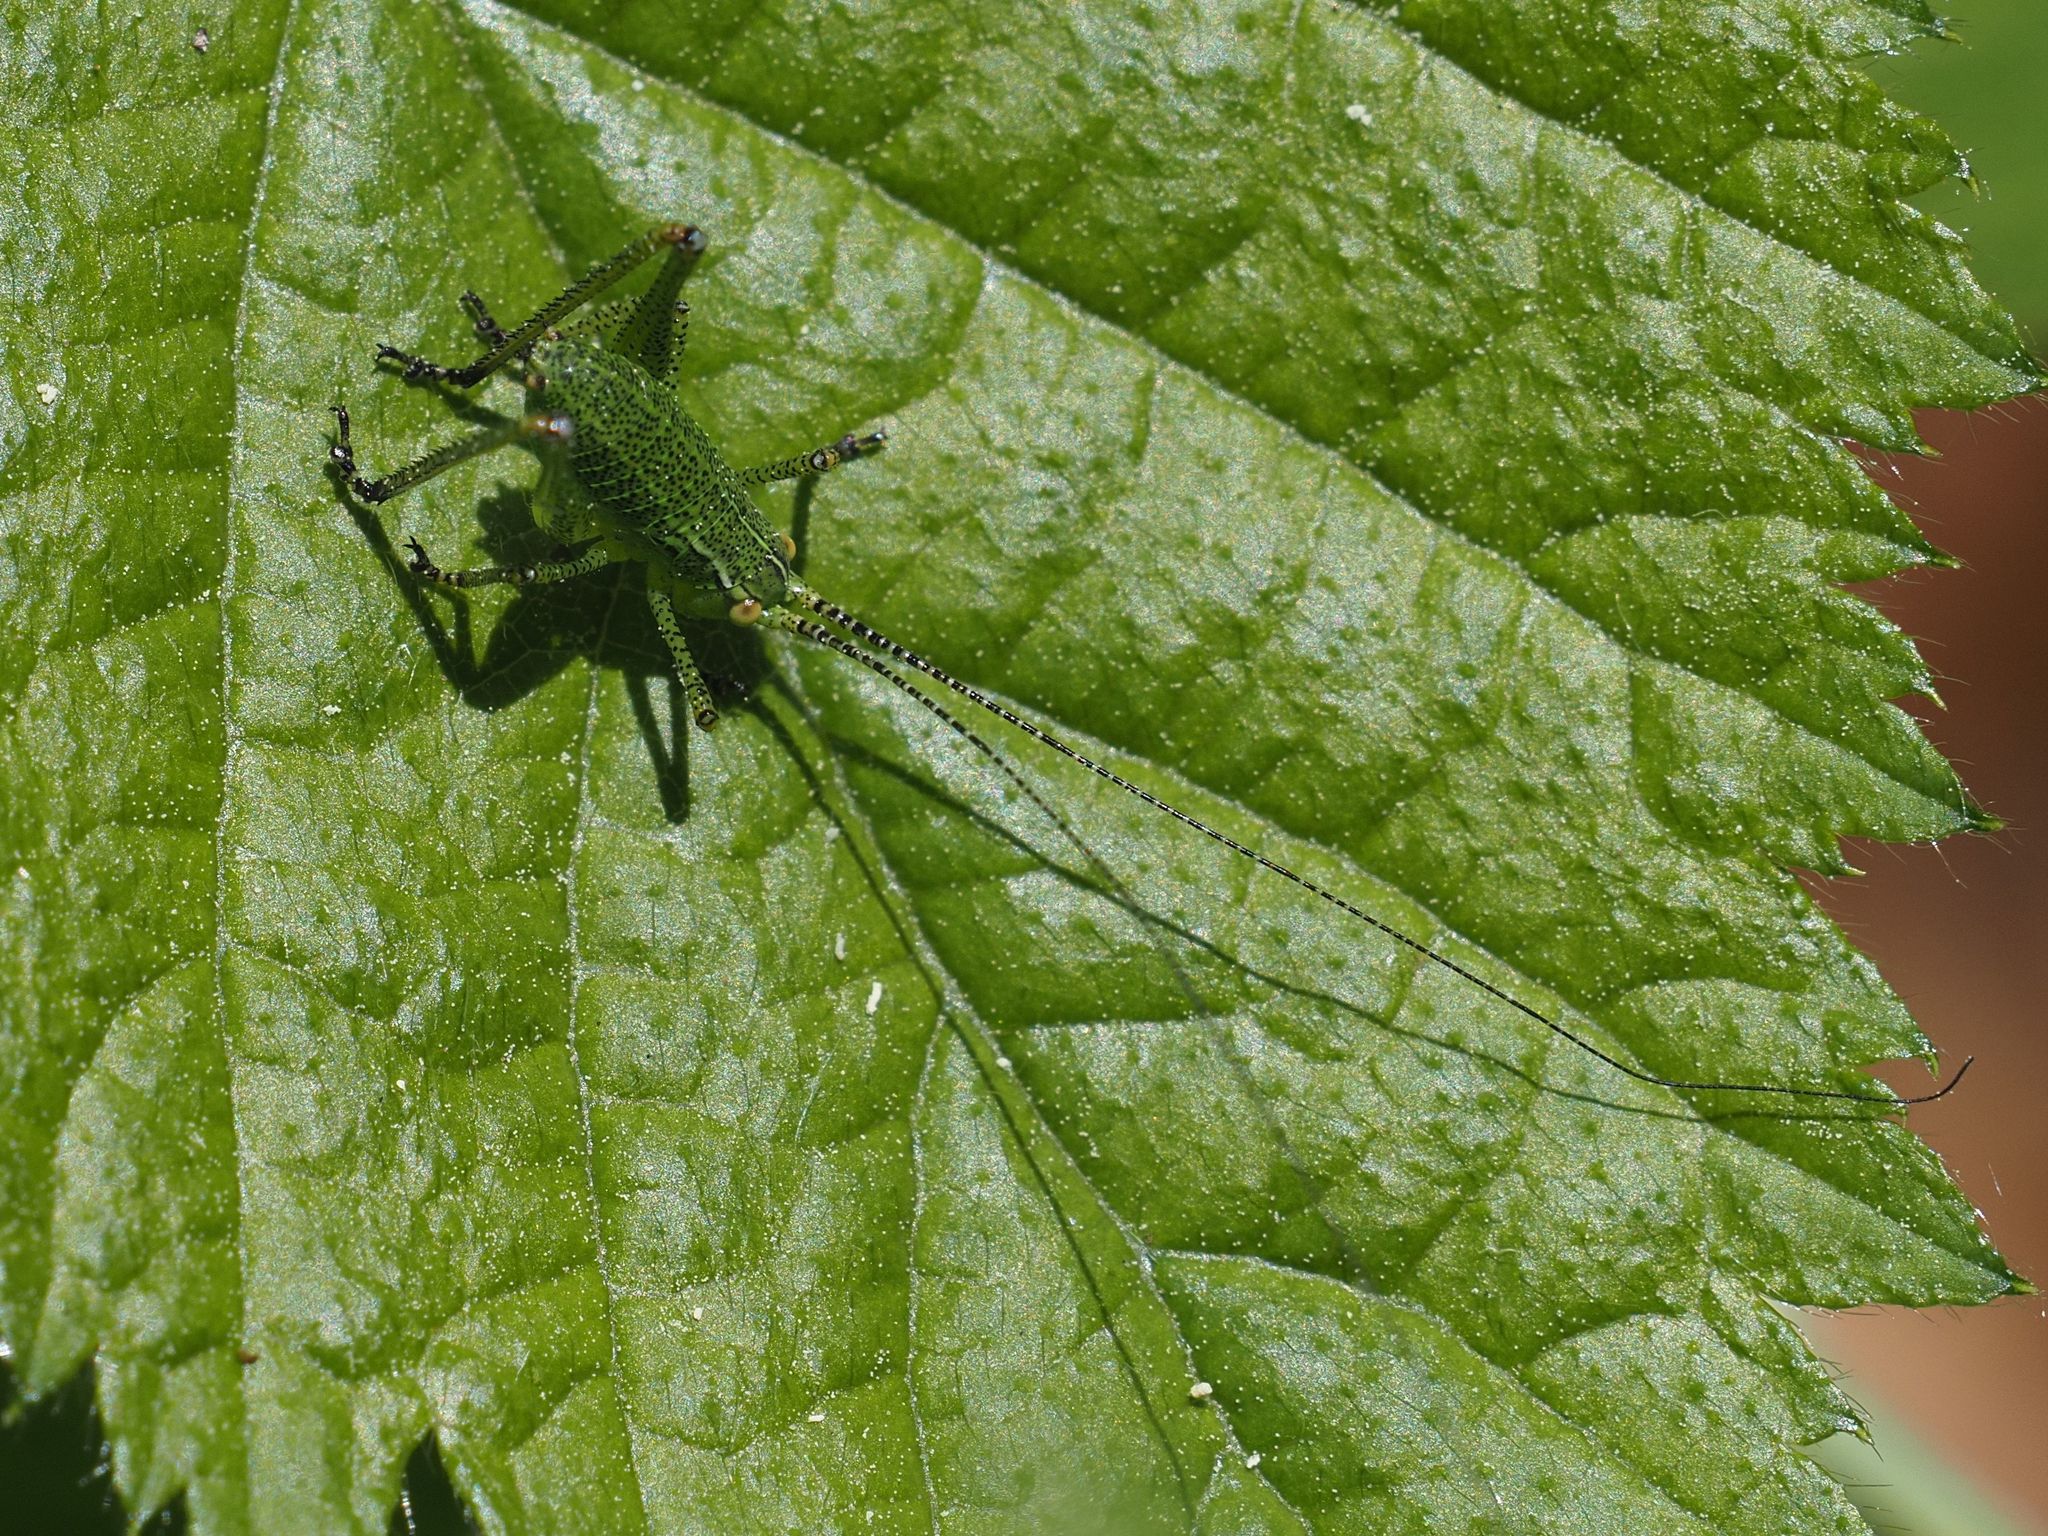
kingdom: Animalia
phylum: Arthropoda
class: Insecta
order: Orthoptera
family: Tettigoniidae
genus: Barbitistes
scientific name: Barbitistes serricauda
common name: Saw-tailed bush-cricket
